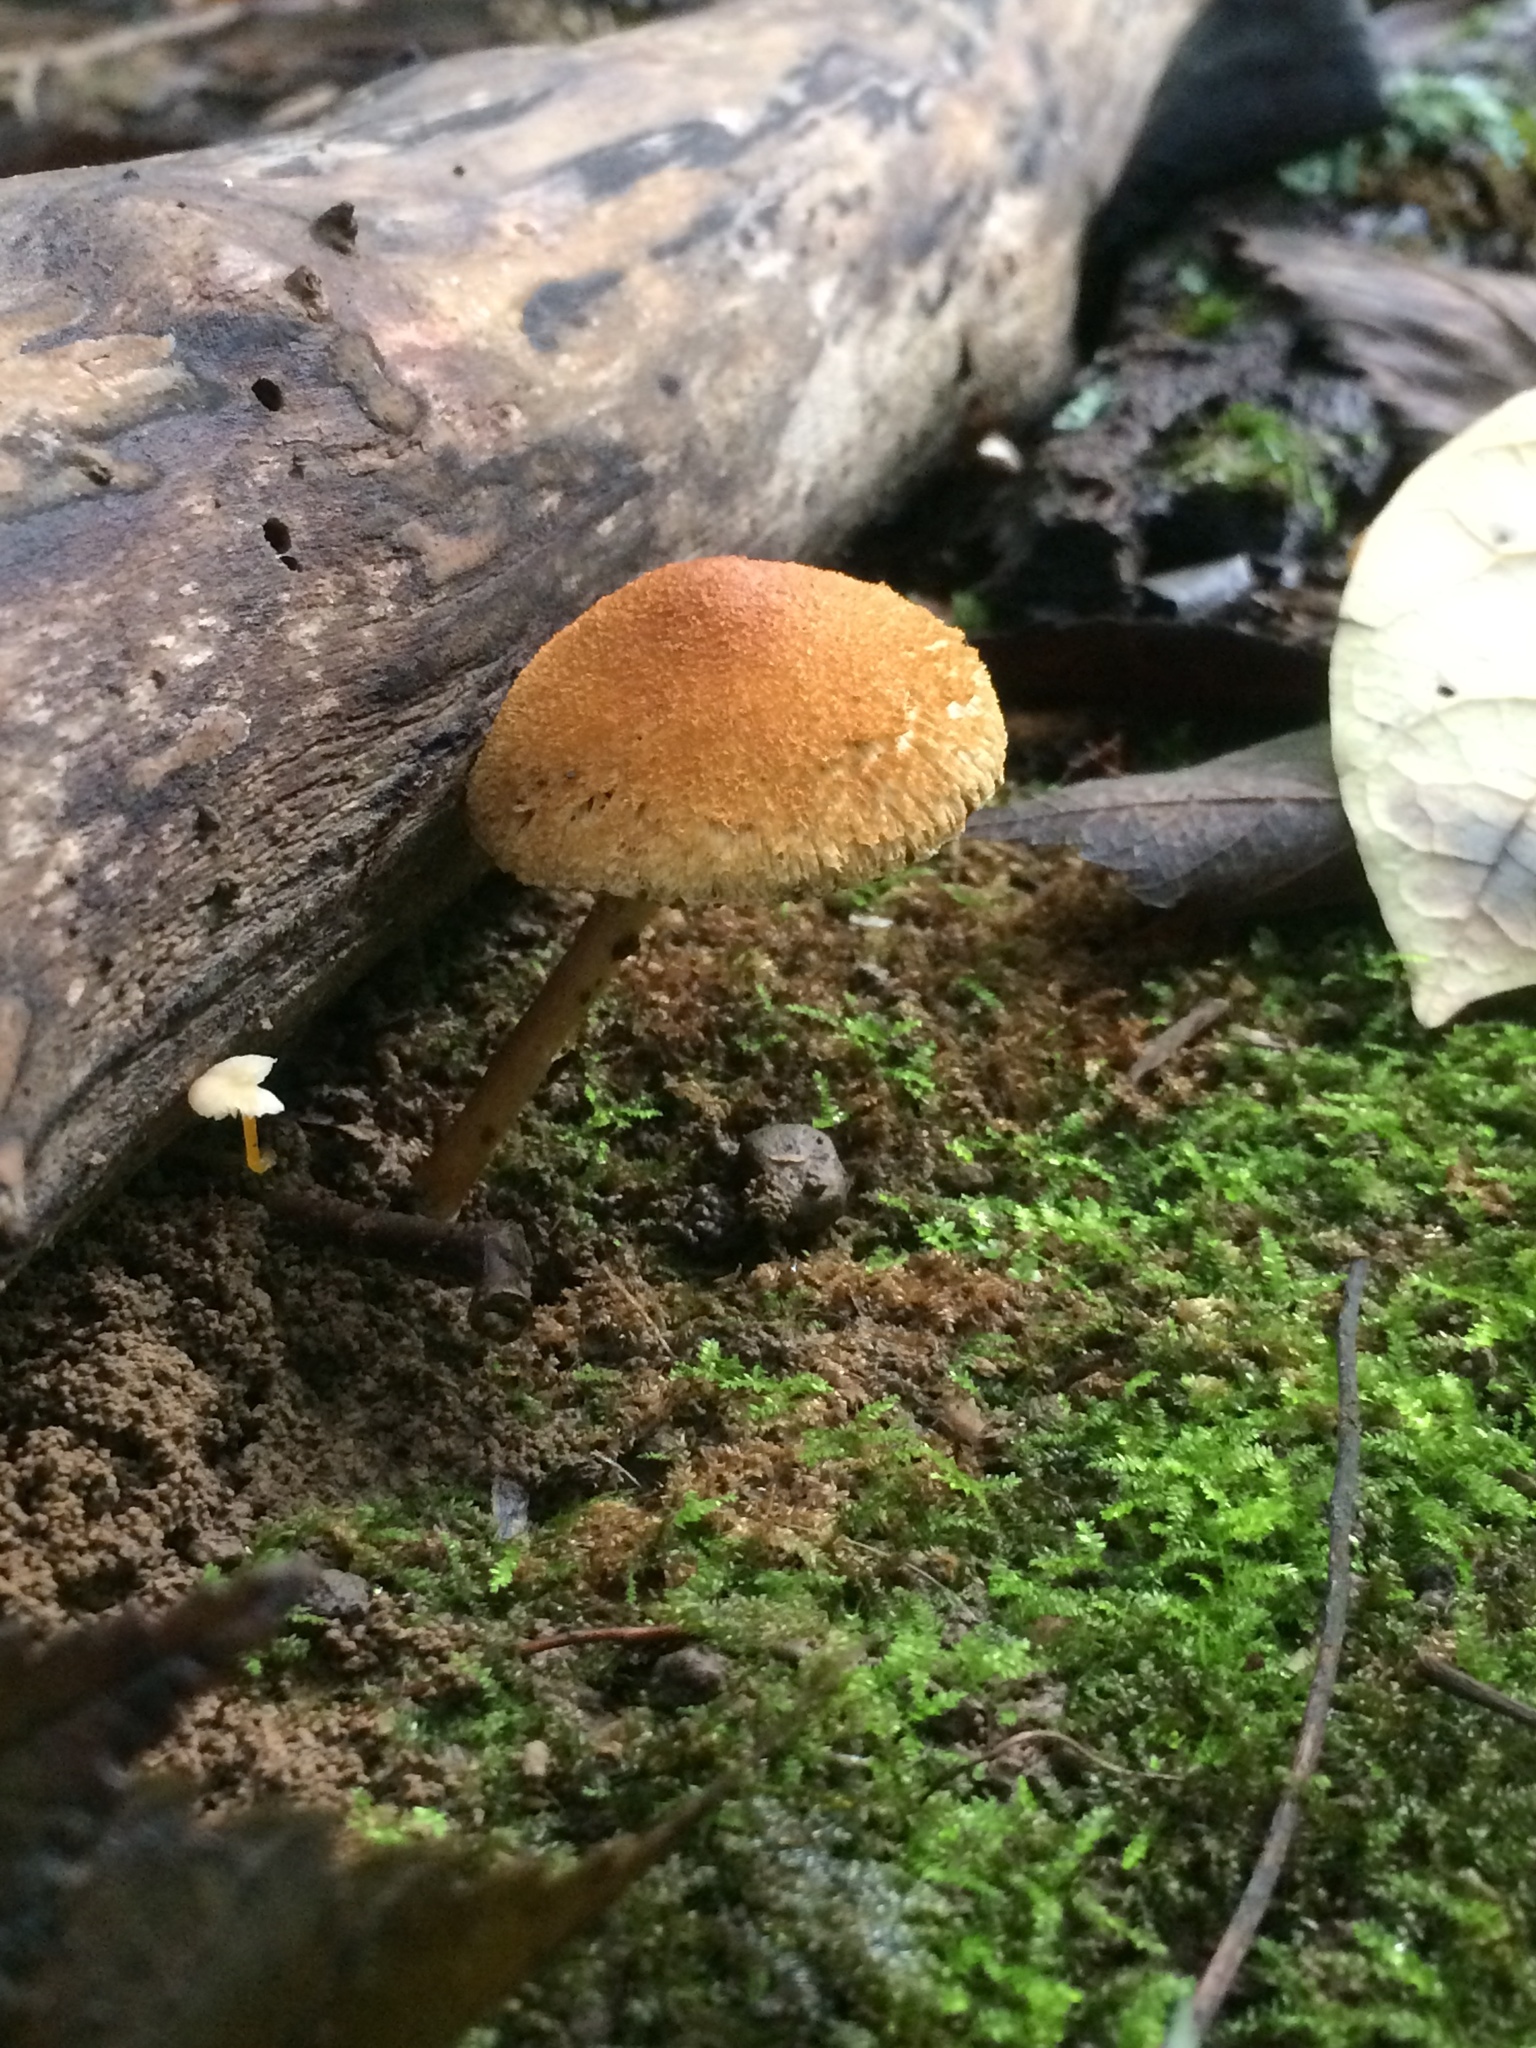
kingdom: Fungi
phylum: Basidiomycota
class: Agaricomycetes
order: Agaricales
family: Inocybaceae
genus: Mallocybe
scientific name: Mallocybe unicolor
